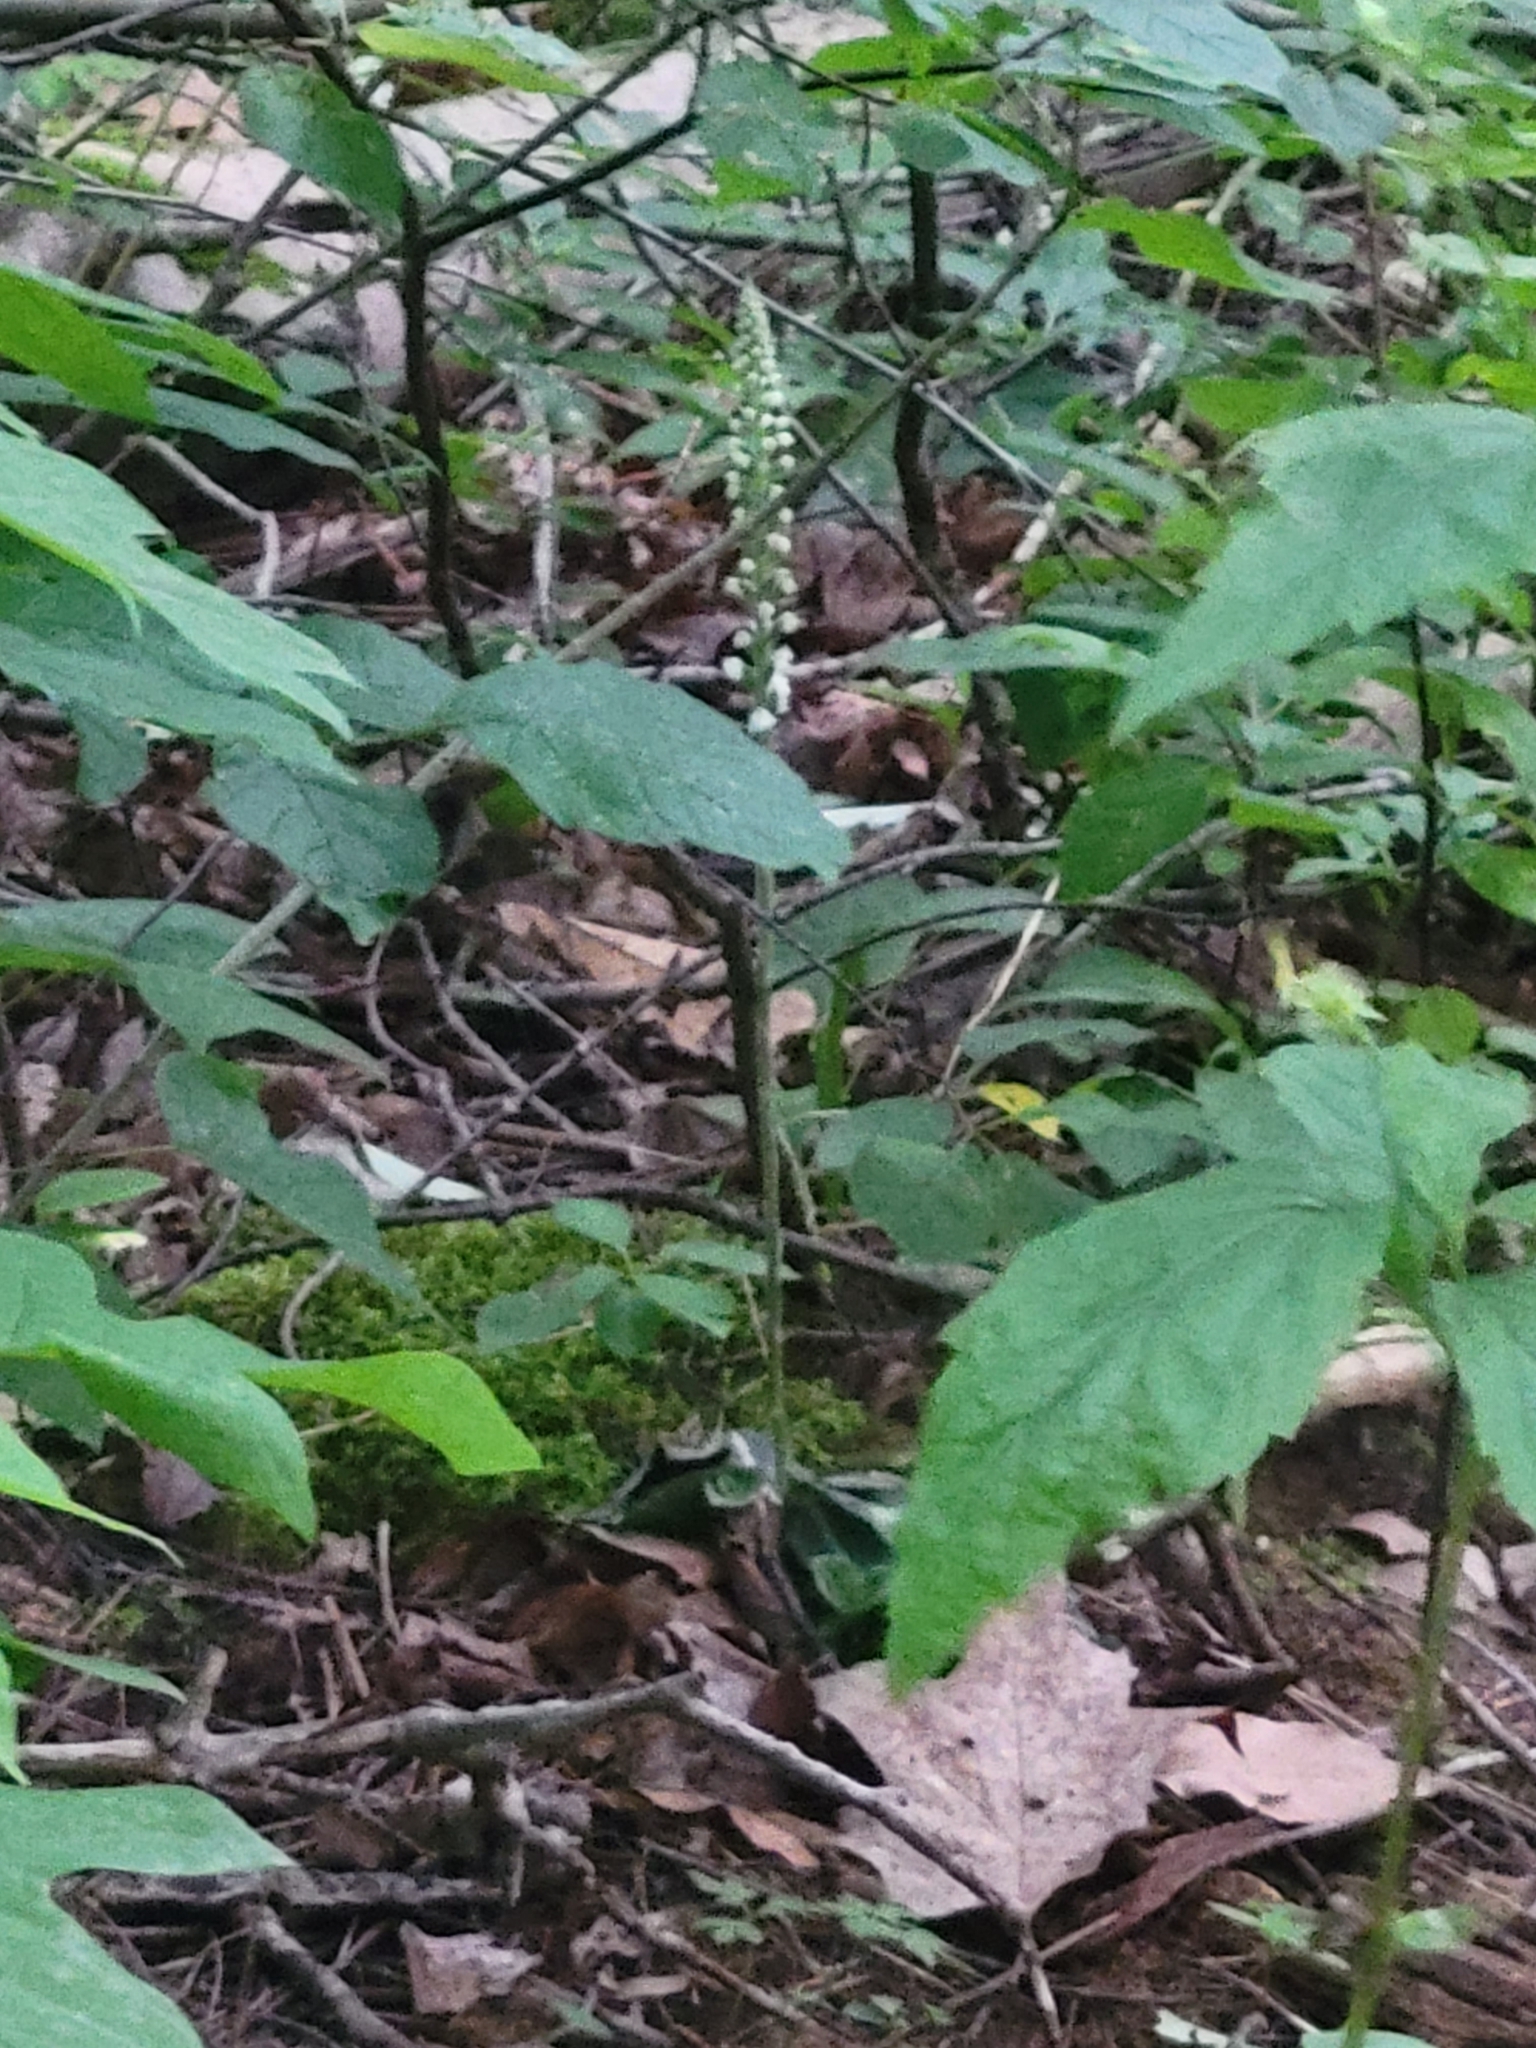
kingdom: Plantae
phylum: Tracheophyta
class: Liliopsida
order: Asparagales
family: Orchidaceae
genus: Goodyera
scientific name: Goodyera pubescens
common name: Downy rattlesnake-plantain
